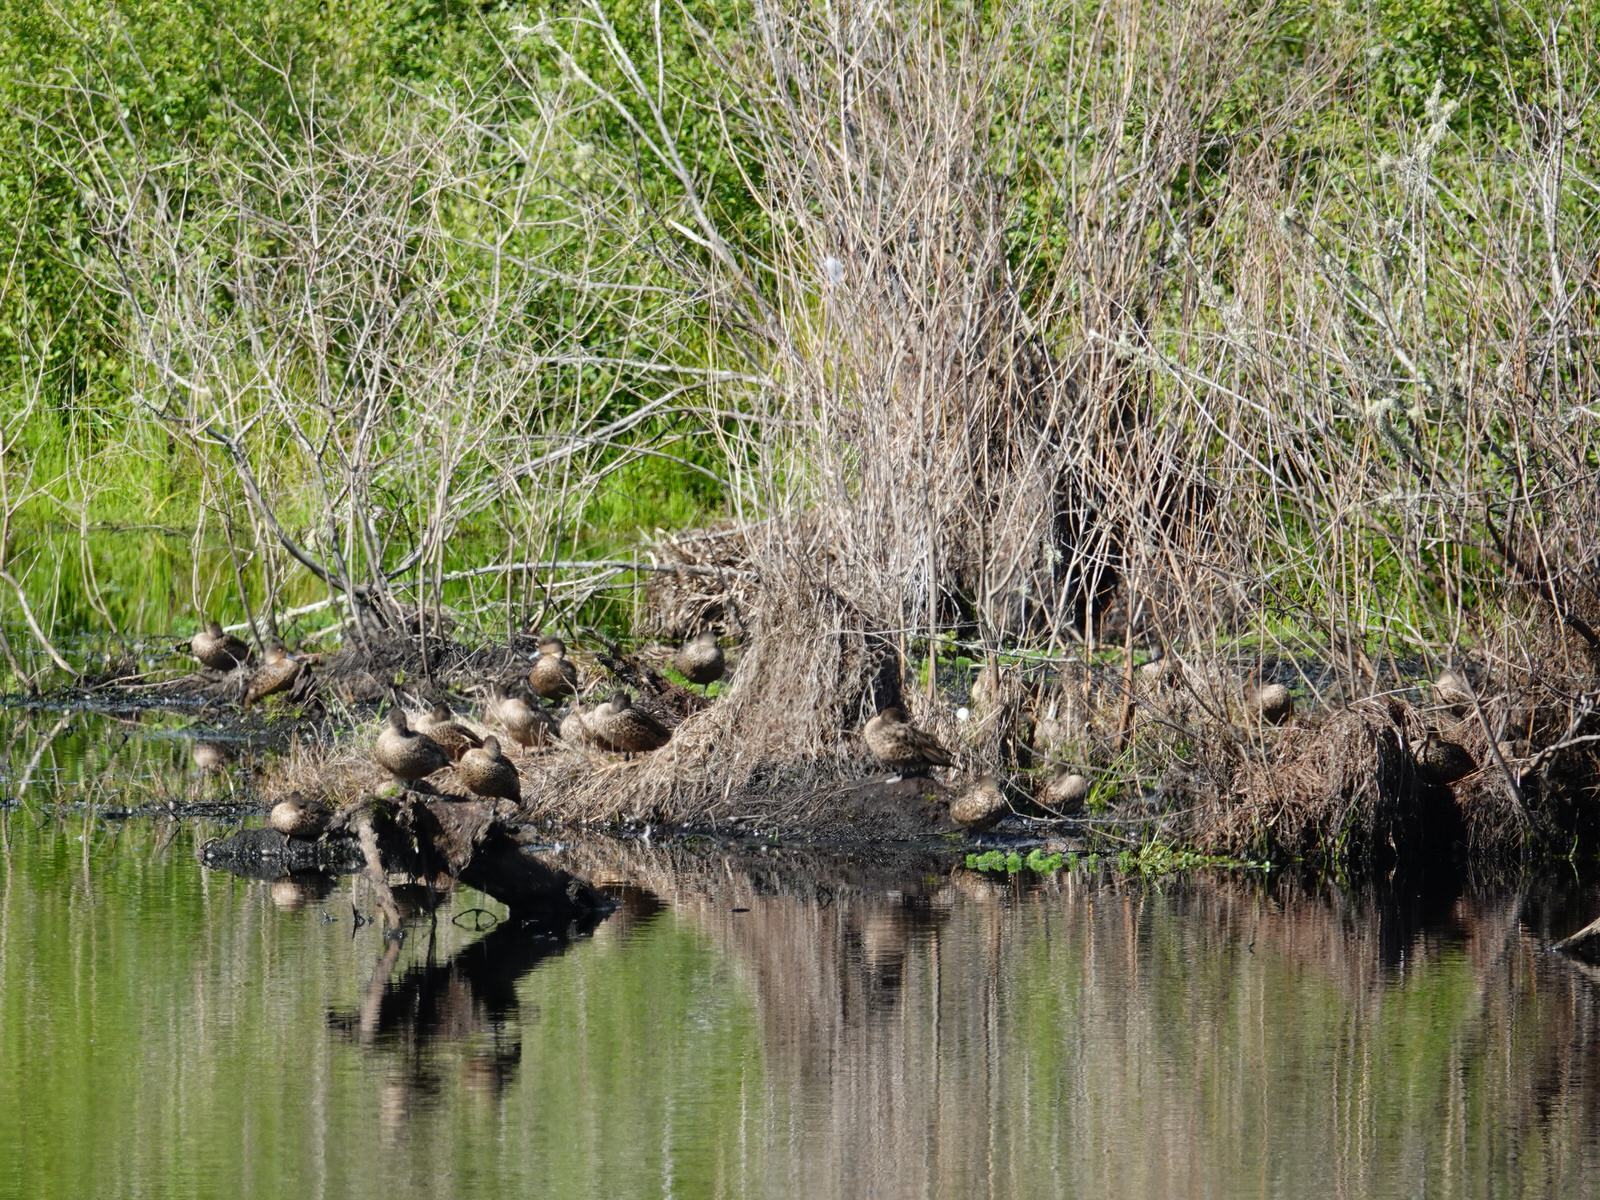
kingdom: Animalia
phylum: Chordata
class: Aves
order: Anseriformes
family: Anatidae
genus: Anas
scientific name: Anas gracilis
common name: Grey teal
